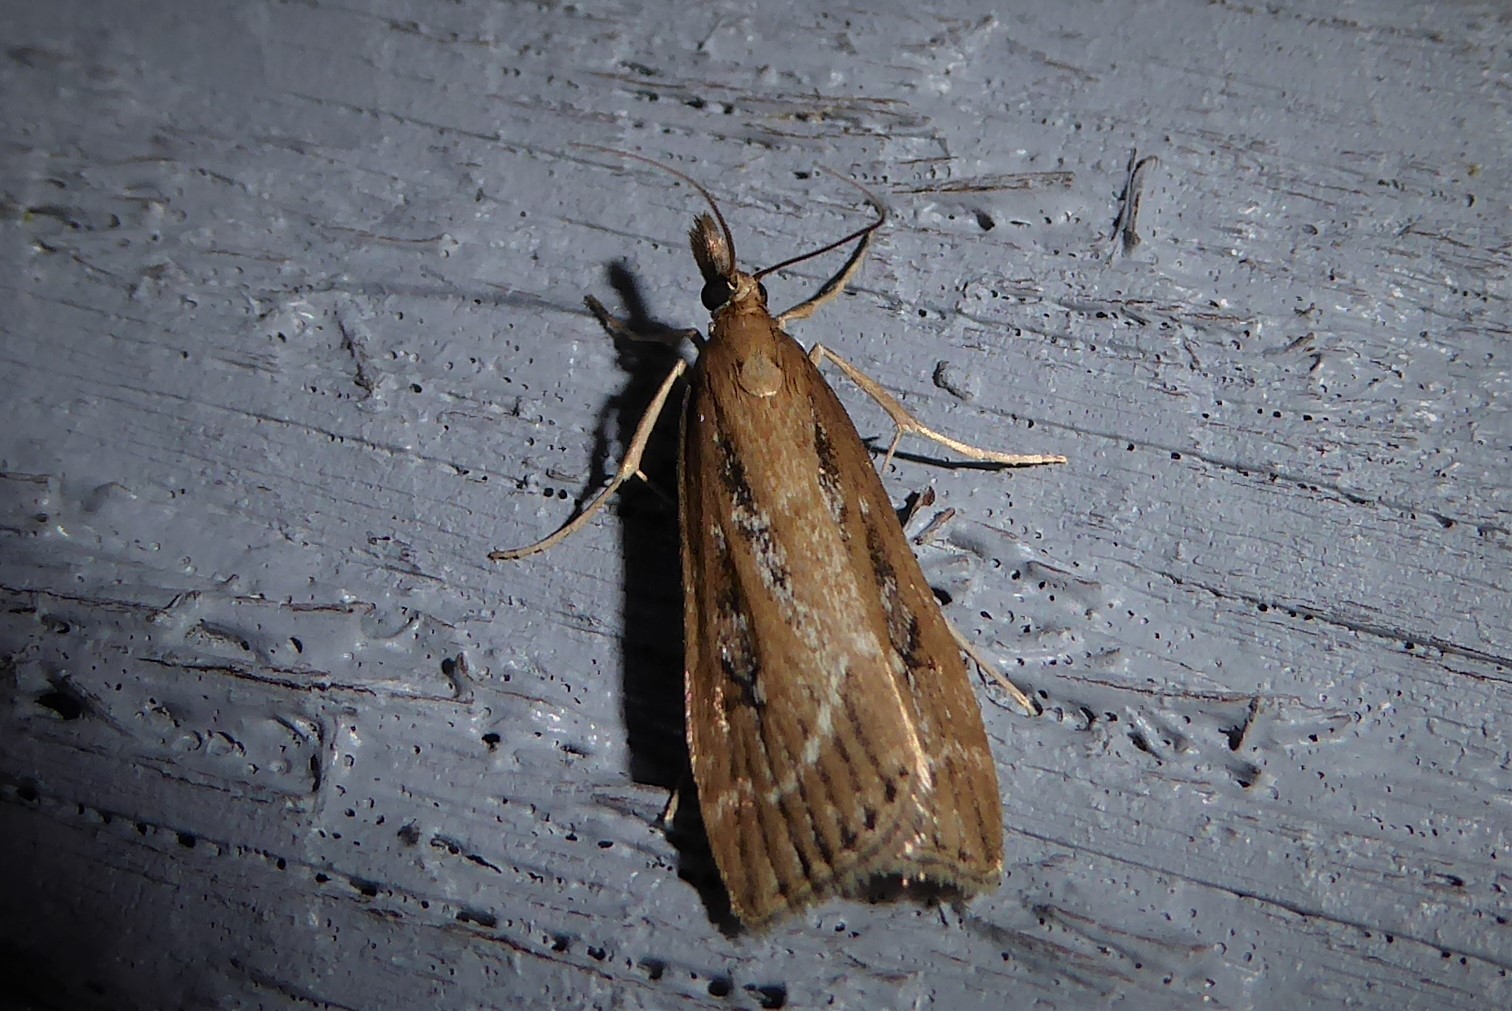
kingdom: Animalia
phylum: Arthropoda
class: Insecta
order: Lepidoptera
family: Crambidae
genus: Eudonia
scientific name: Eudonia octophora
